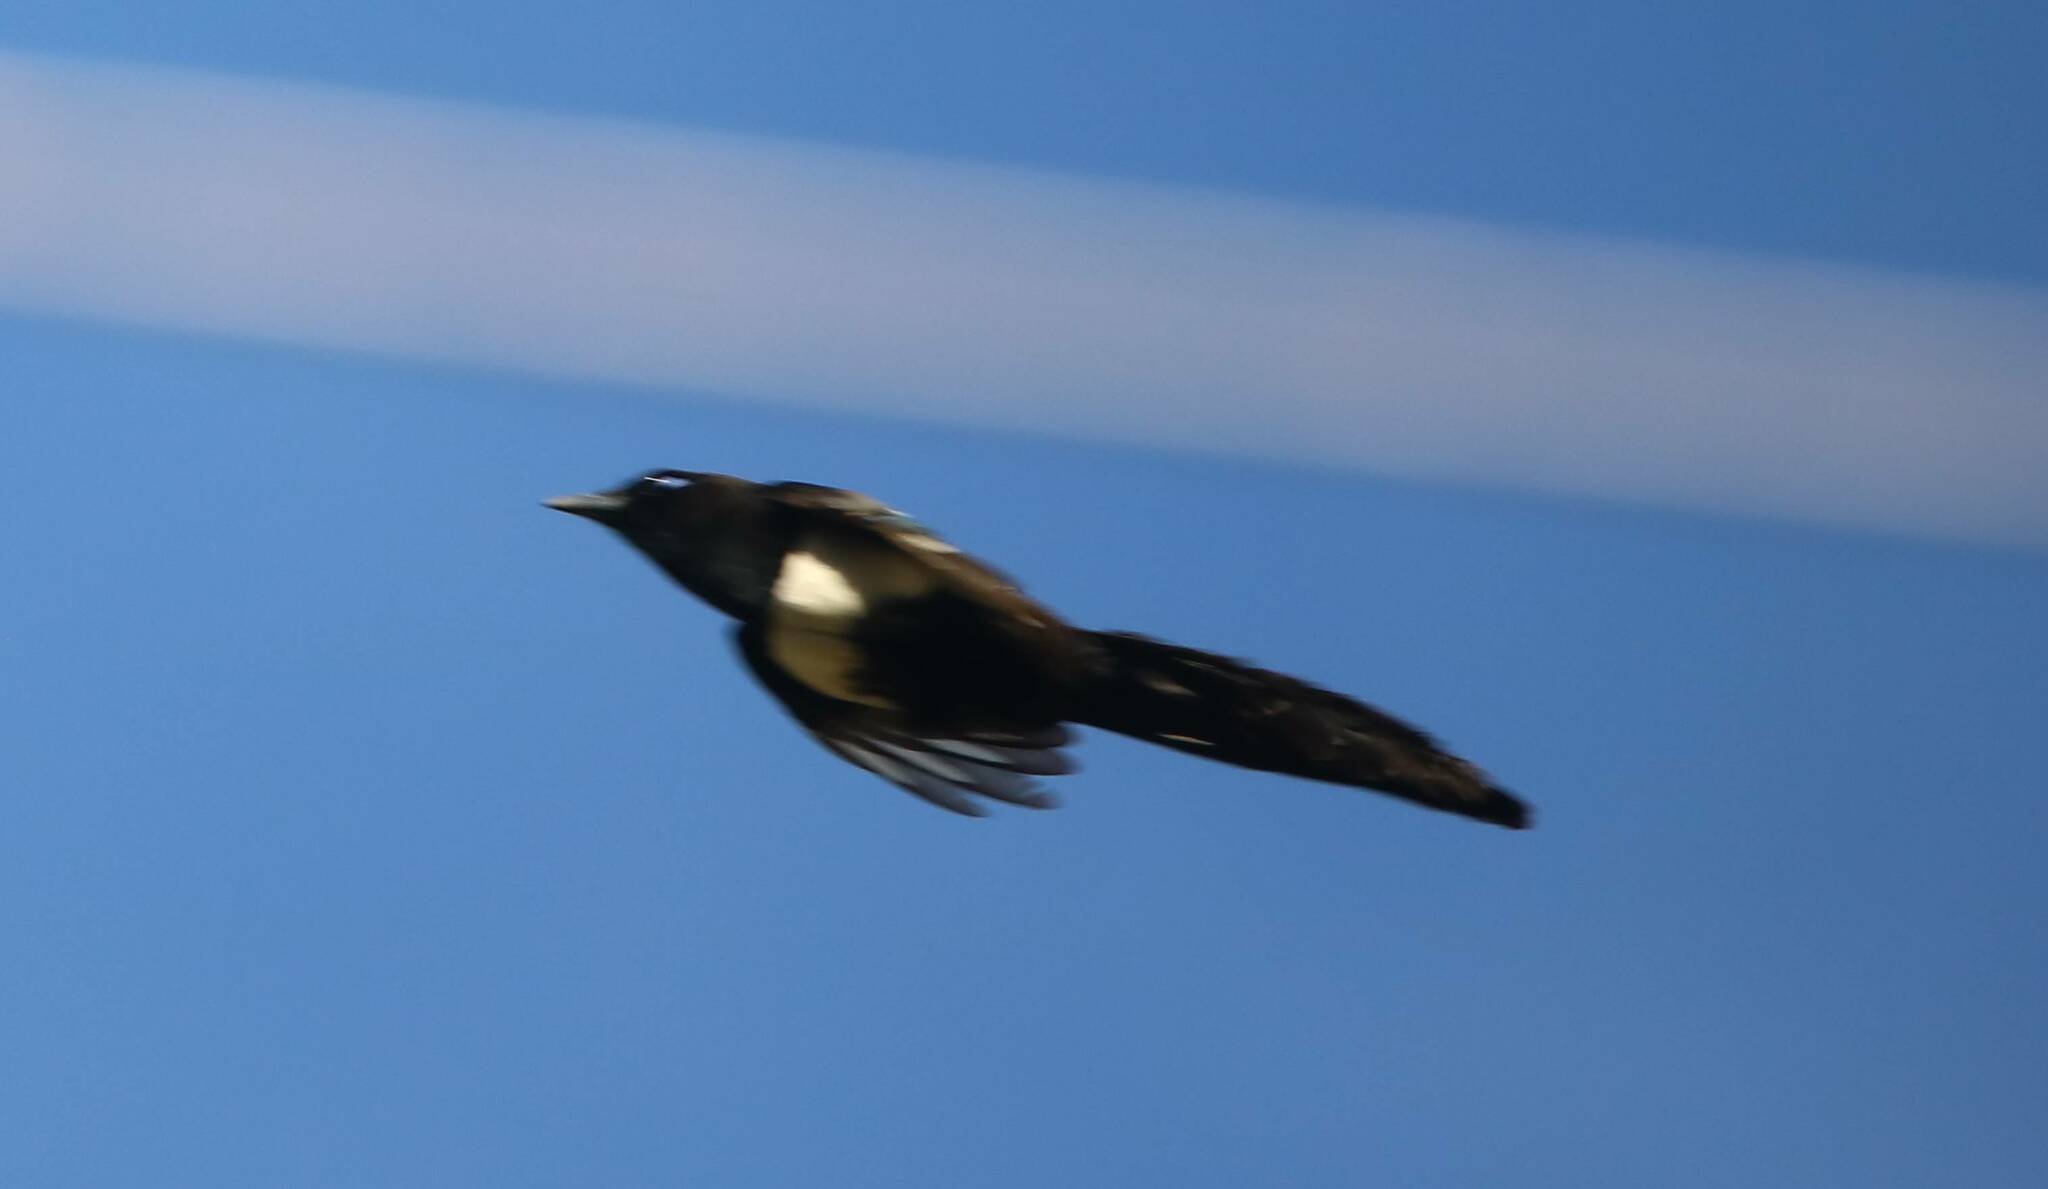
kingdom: Animalia
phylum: Chordata
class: Aves
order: Passeriformes
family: Corvidae
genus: Pica
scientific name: Pica mauritanica
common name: Maghreb magpie
